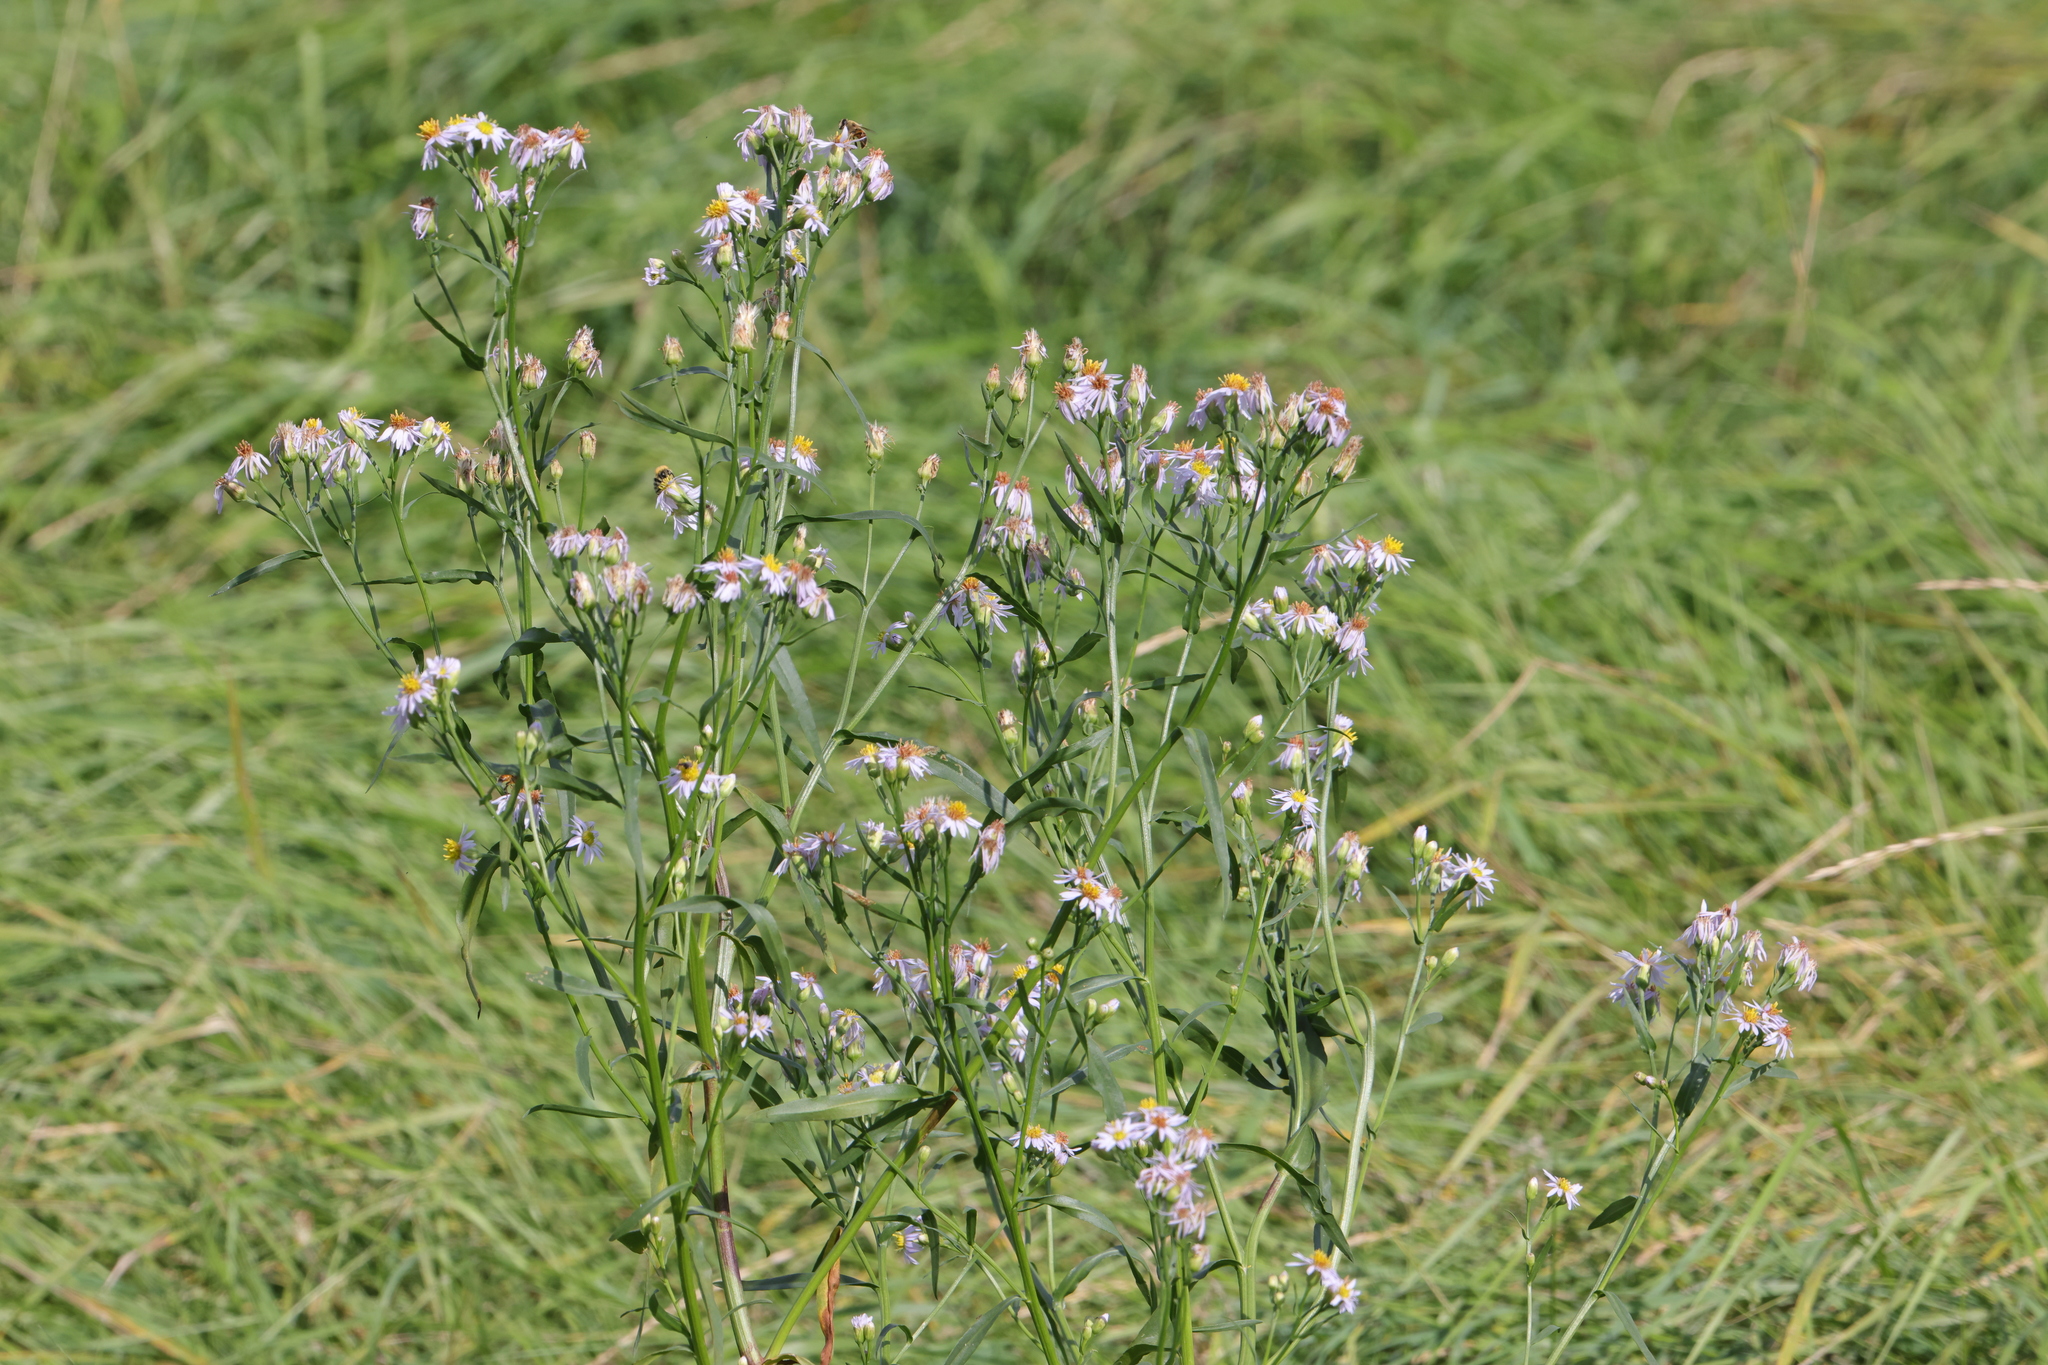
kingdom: Plantae
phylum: Tracheophyta
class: Magnoliopsida
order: Asterales
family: Asteraceae
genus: Tripolium
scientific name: Tripolium pannonicum
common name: Sea aster
